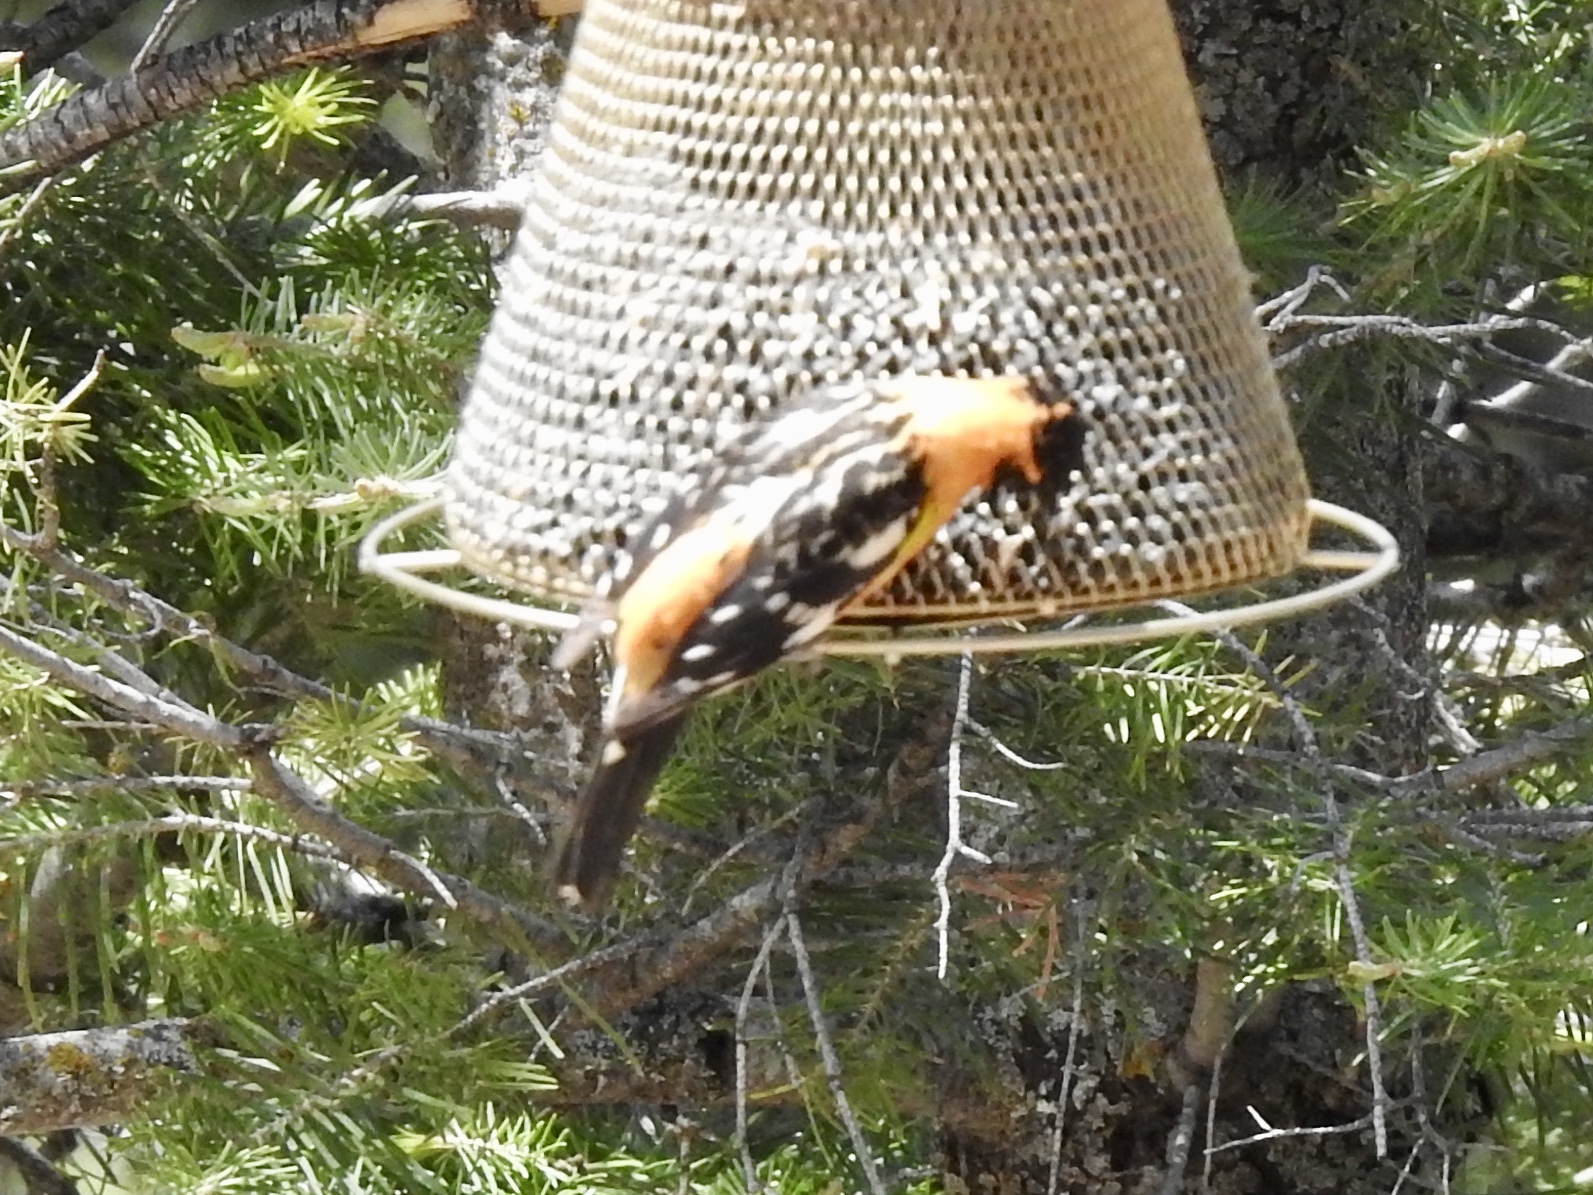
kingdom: Animalia
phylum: Chordata
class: Aves
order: Passeriformes
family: Cardinalidae
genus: Pheucticus
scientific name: Pheucticus melanocephalus
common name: Black-headed grosbeak
